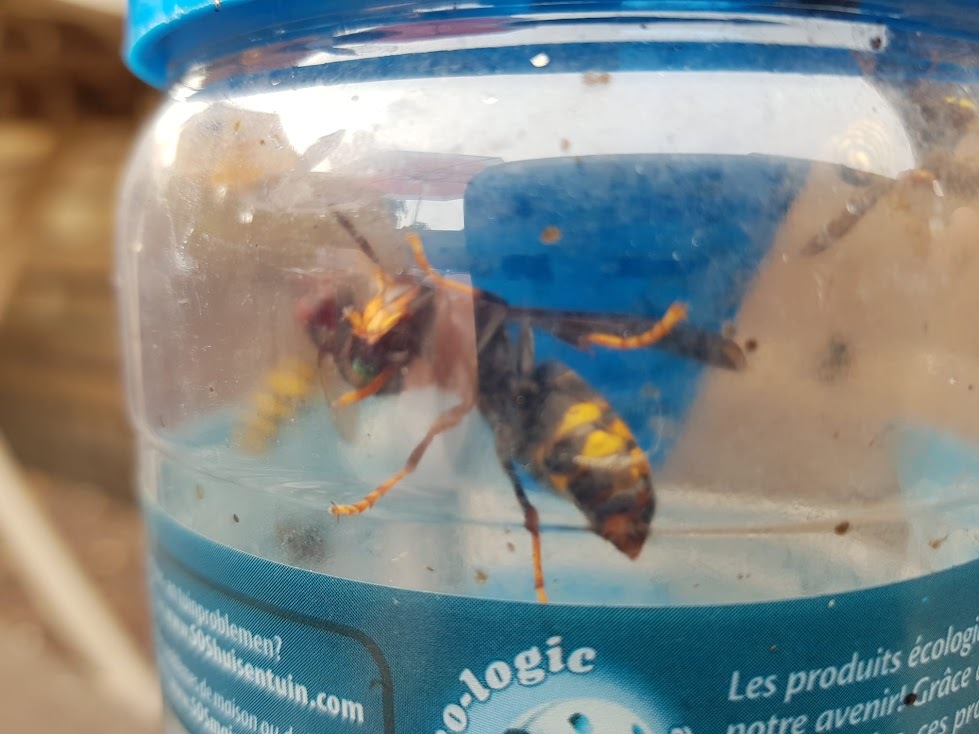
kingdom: Animalia
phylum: Arthropoda
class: Insecta
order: Hymenoptera
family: Vespidae
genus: Vespa
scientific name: Vespa velutina
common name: Asian hornet
